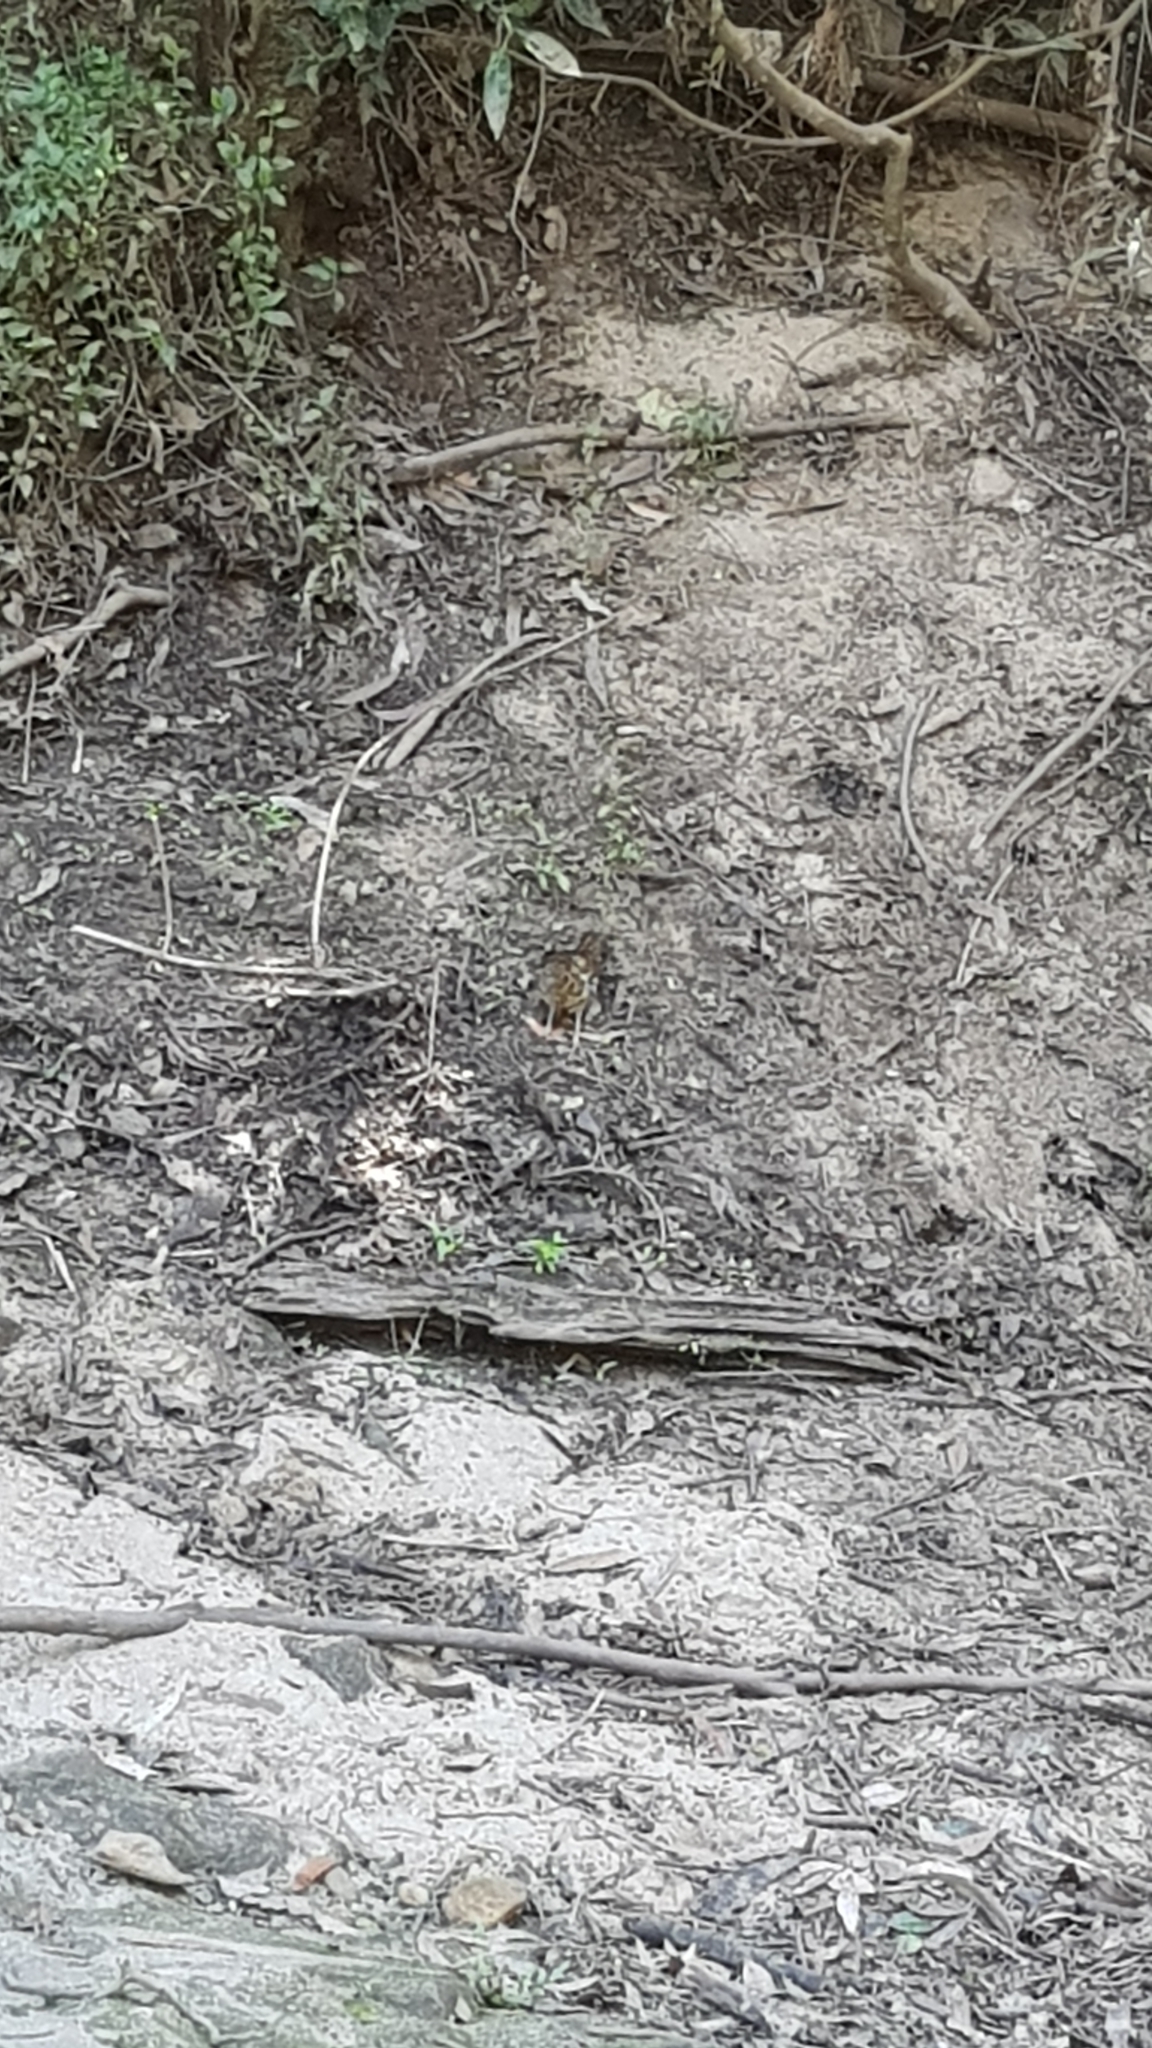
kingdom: Animalia
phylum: Chordata
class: Aves
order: Passeriformes
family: Turdidae
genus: Zoothera
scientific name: Zoothera lunulata
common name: Bassian thrush
